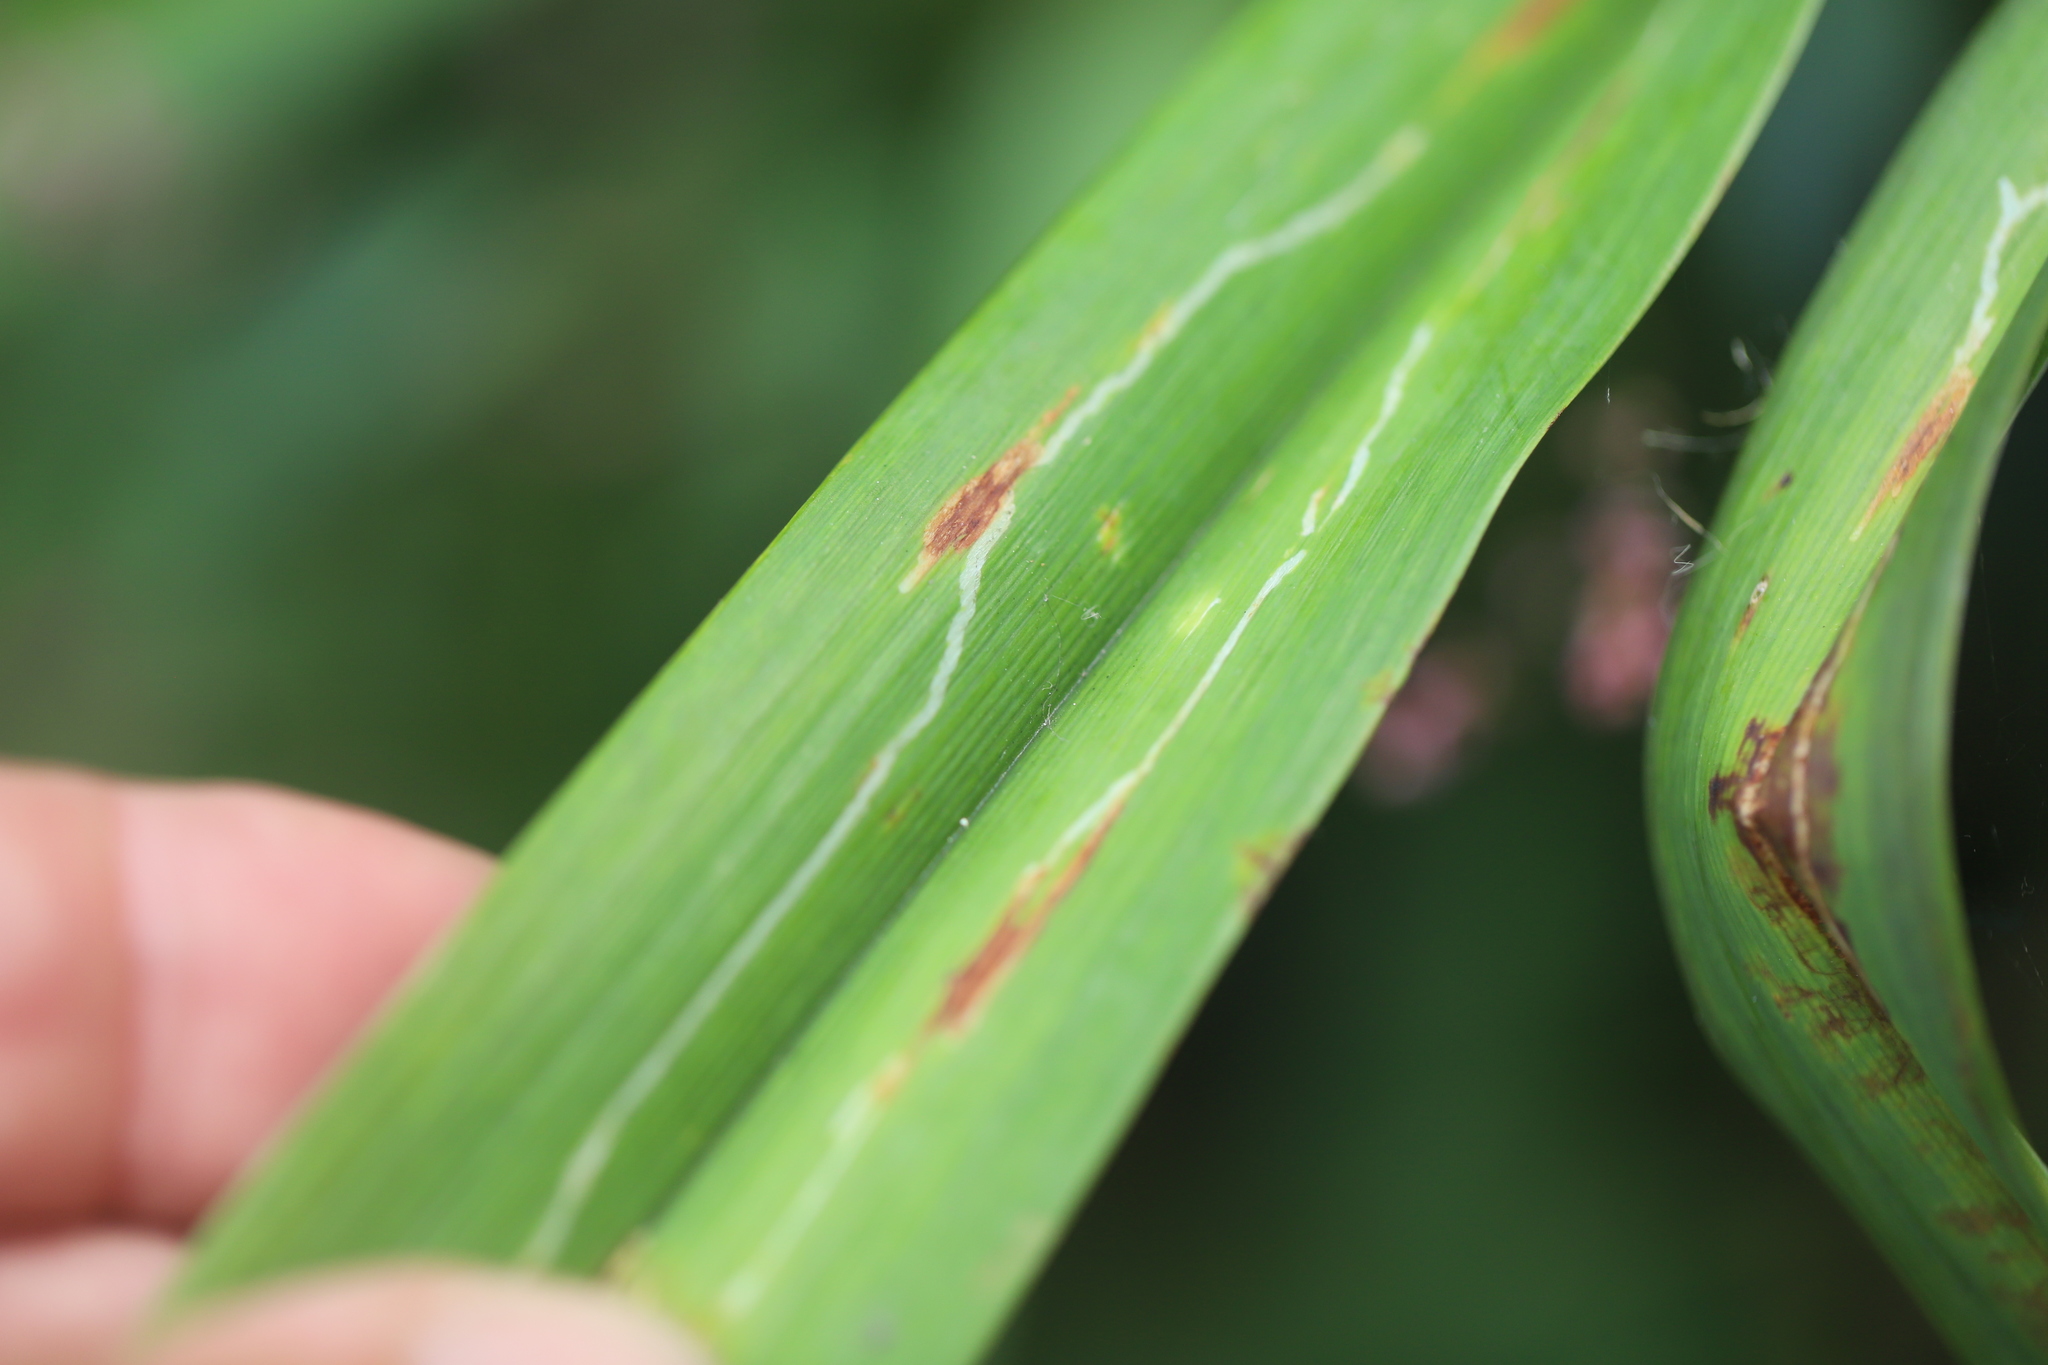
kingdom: Animalia
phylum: Arthropoda
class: Insecta
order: Diptera
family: Agromyzidae
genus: Ophiomyia
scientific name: Ophiomyia kwansonis
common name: Daylily leafminer
